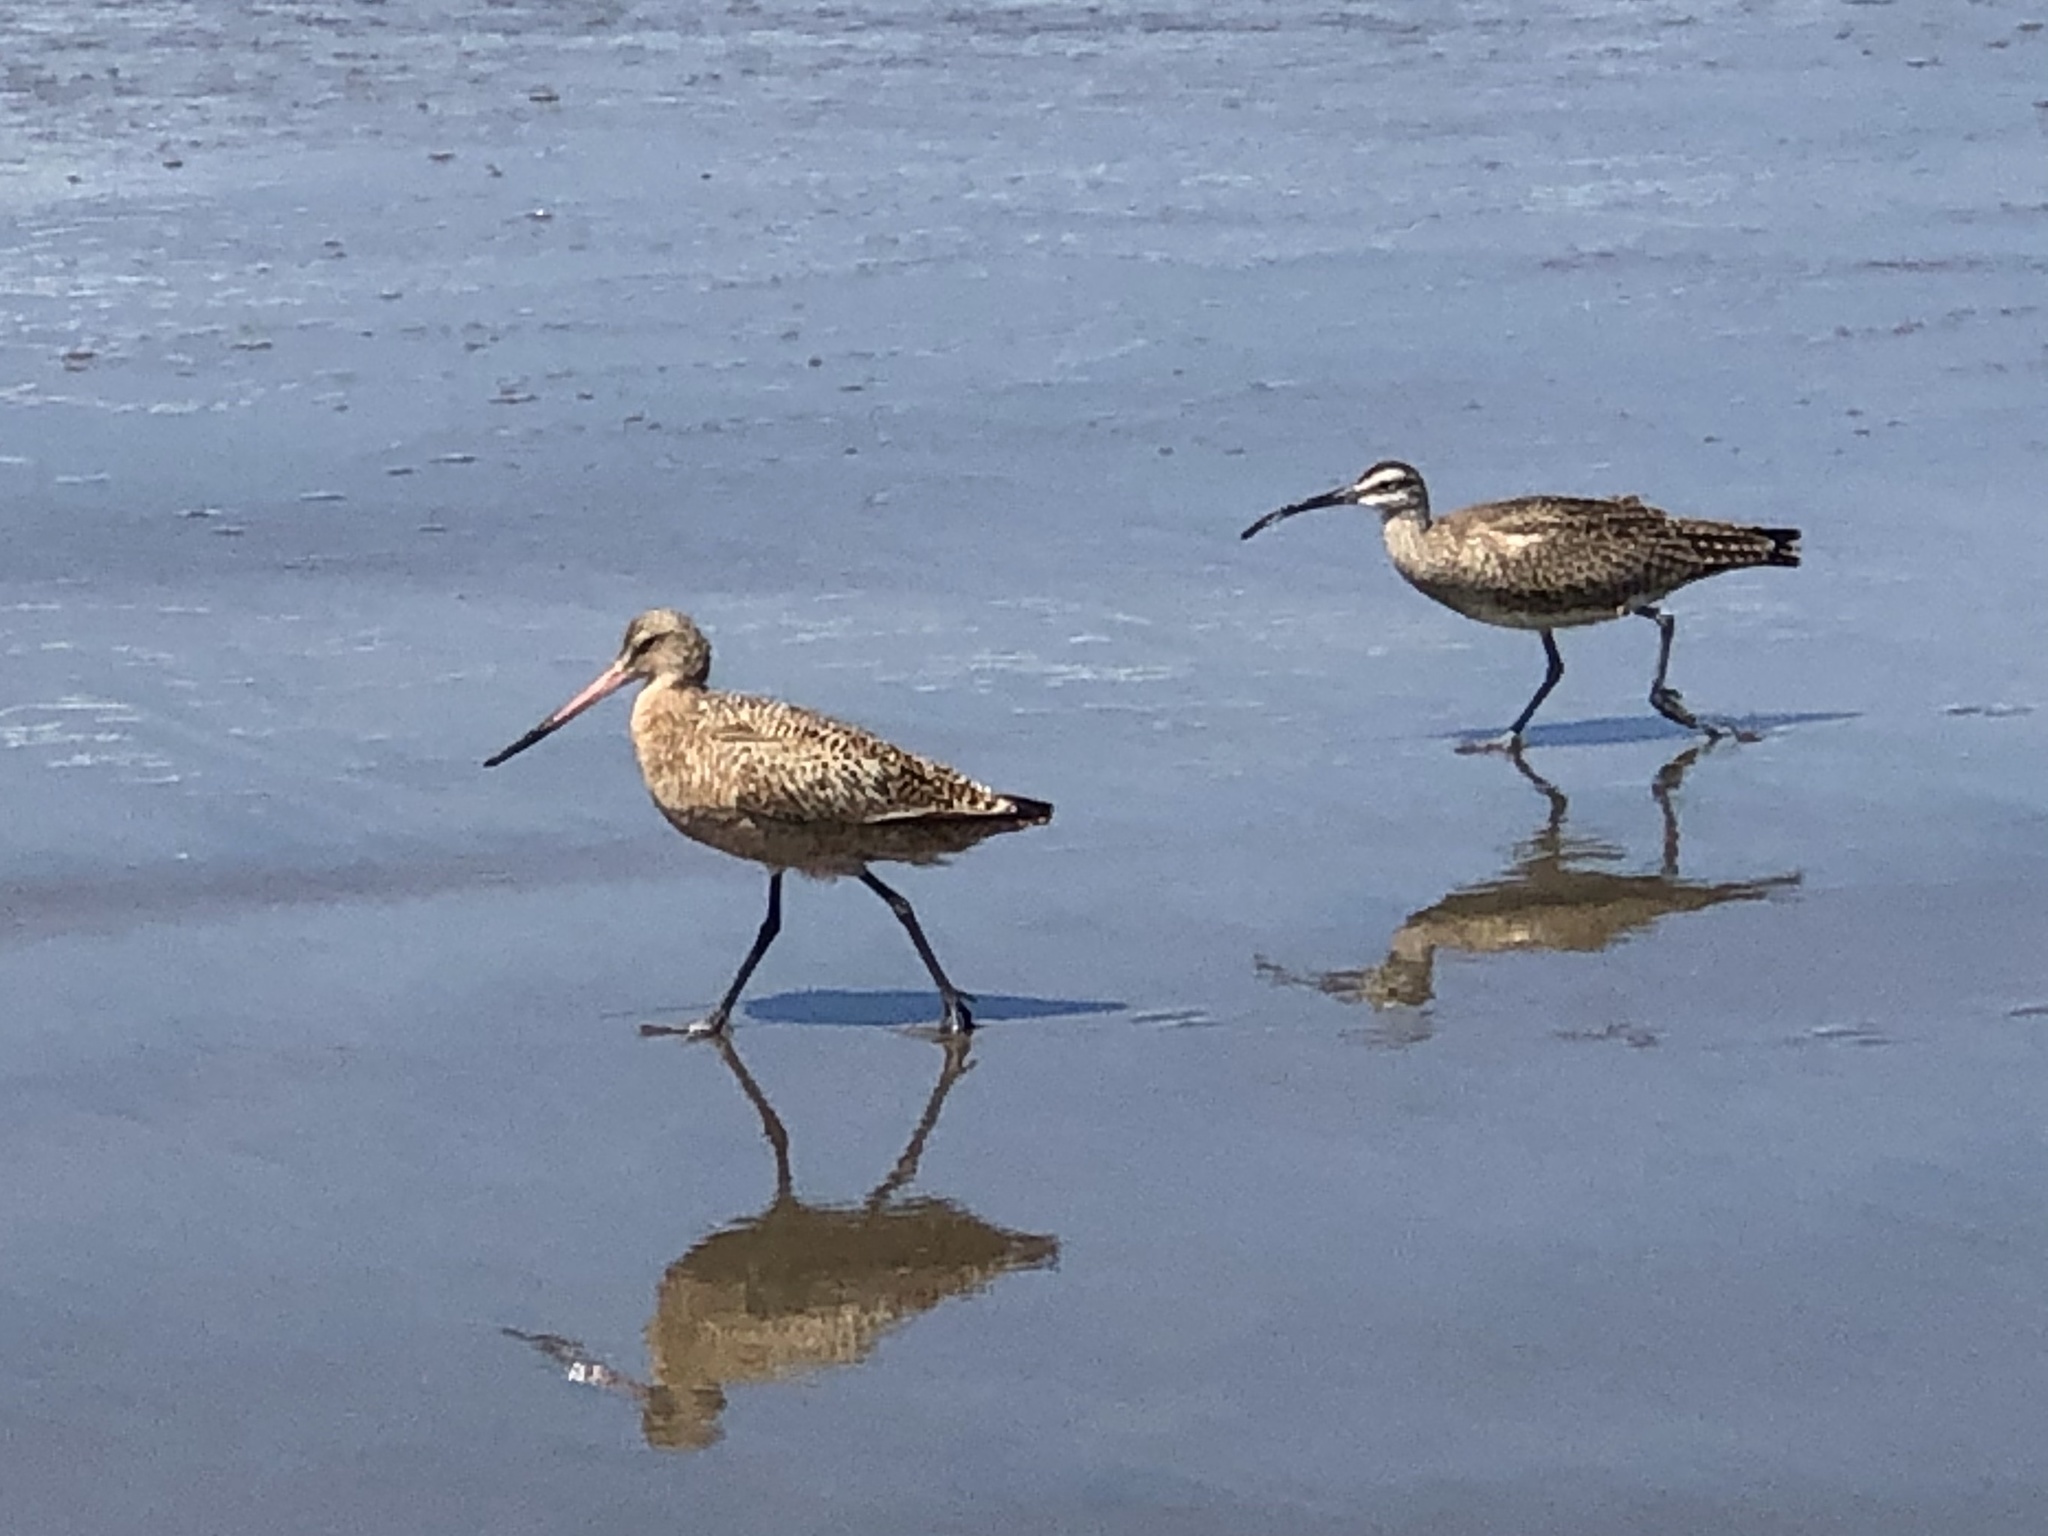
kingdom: Animalia
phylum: Chordata
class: Aves
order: Charadriiformes
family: Scolopacidae
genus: Limosa
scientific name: Limosa fedoa
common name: Marbled godwit
